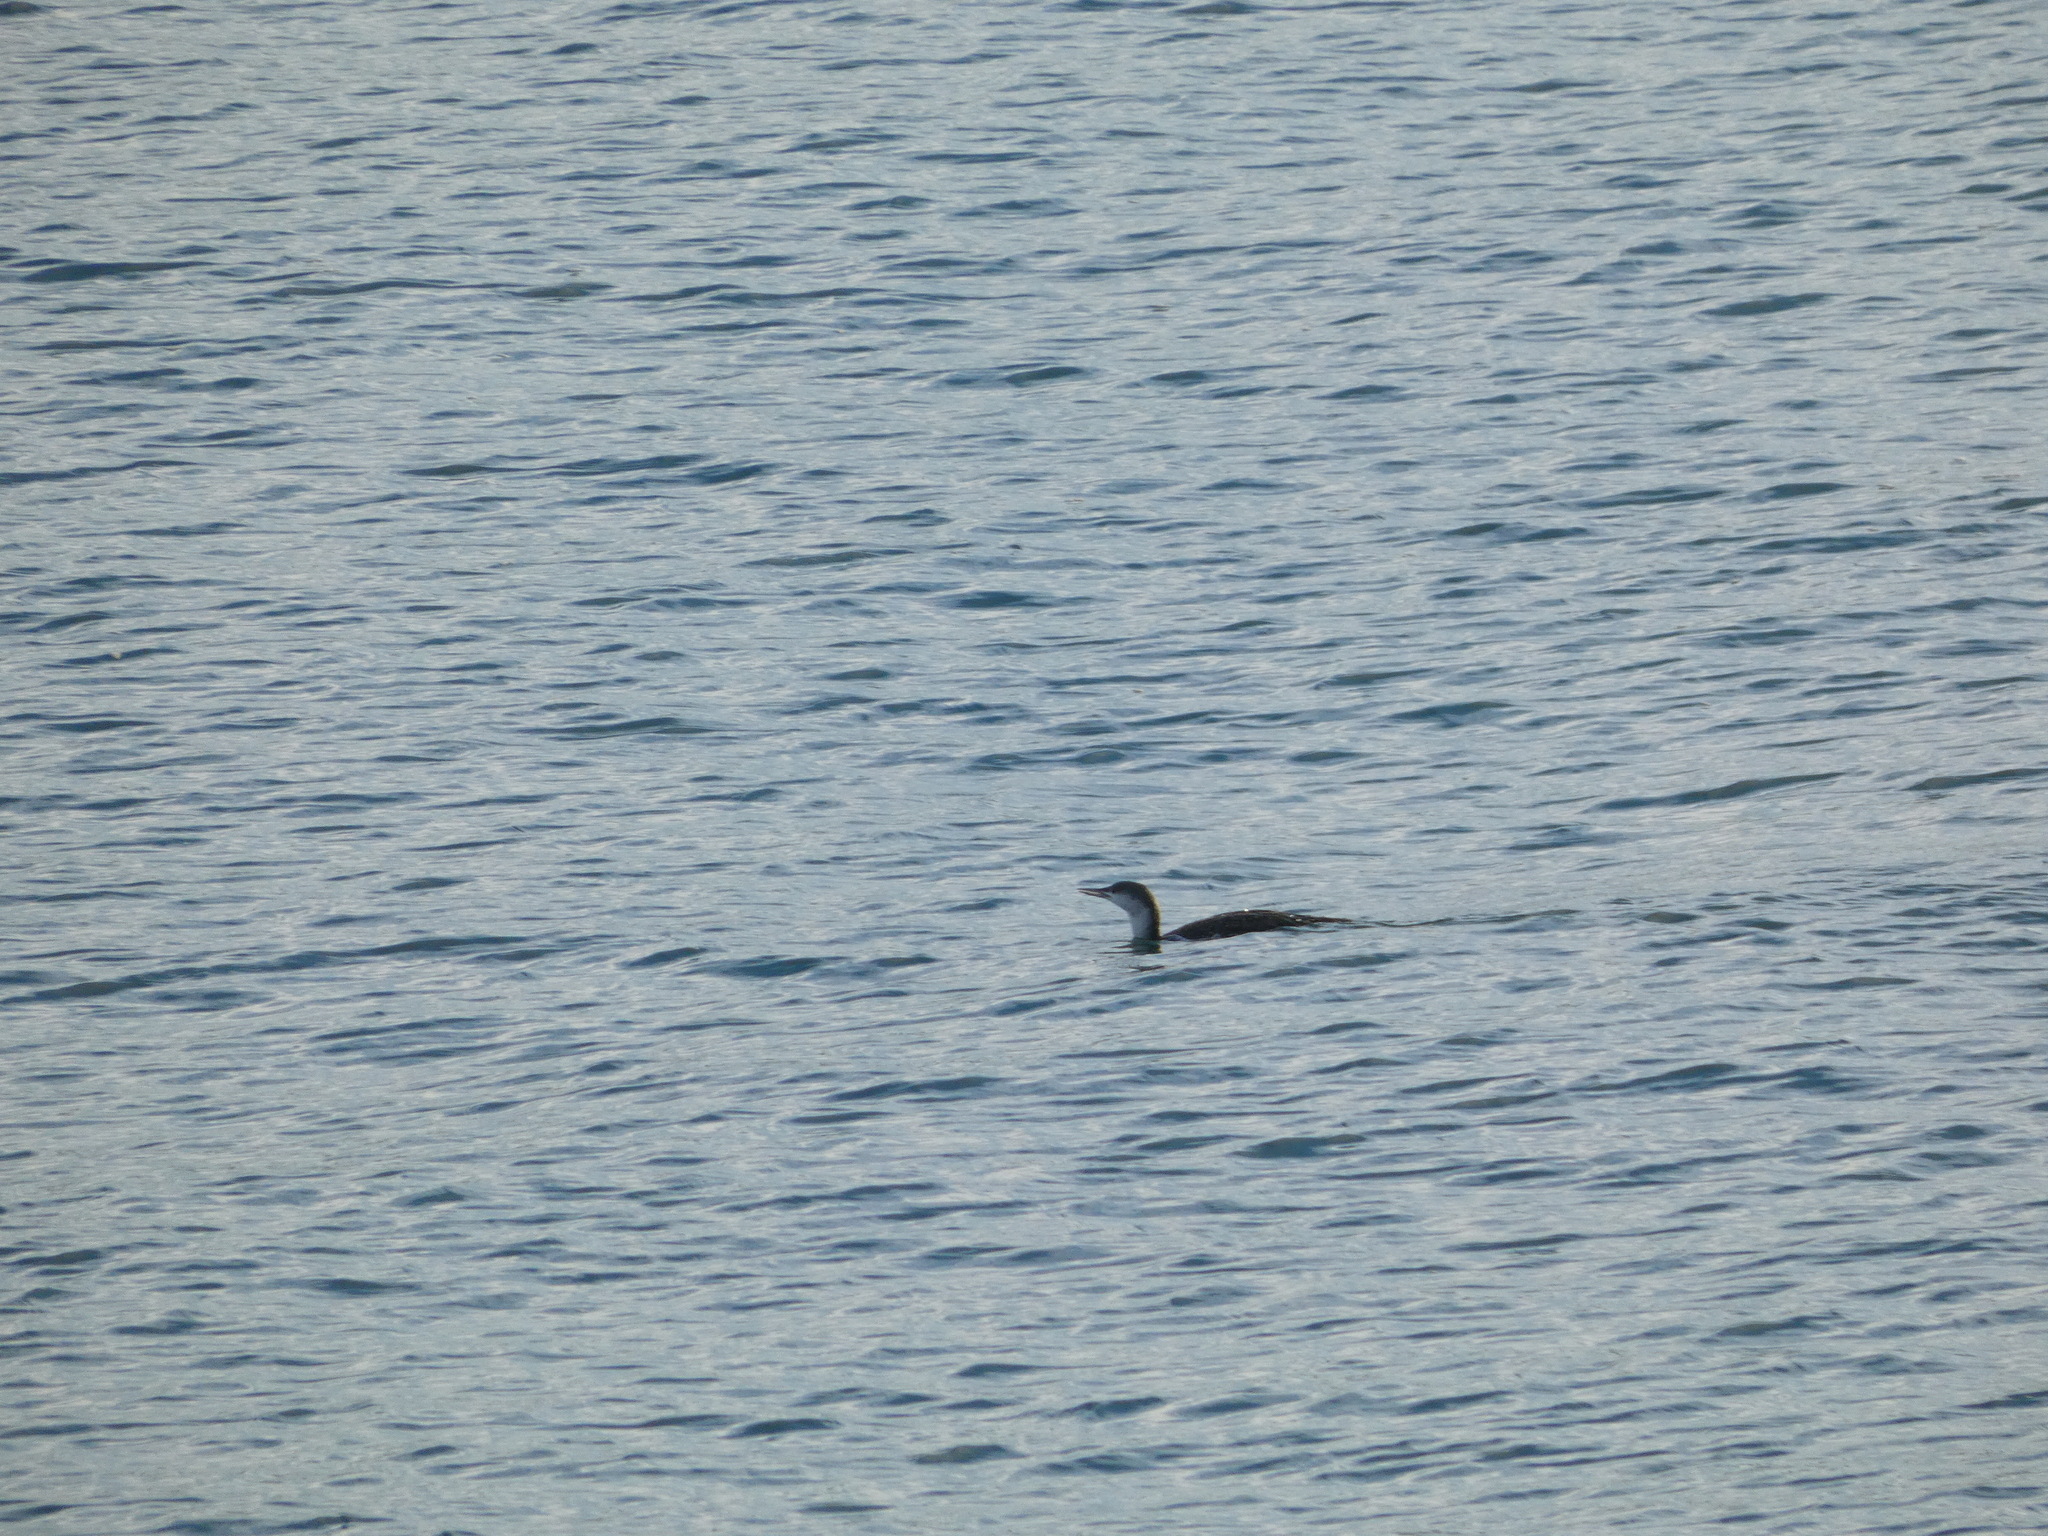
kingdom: Animalia
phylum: Chordata
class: Aves
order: Gaviiformes
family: Gaviidae
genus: Gavia
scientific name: Gavia stellata
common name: Red-throated loon
